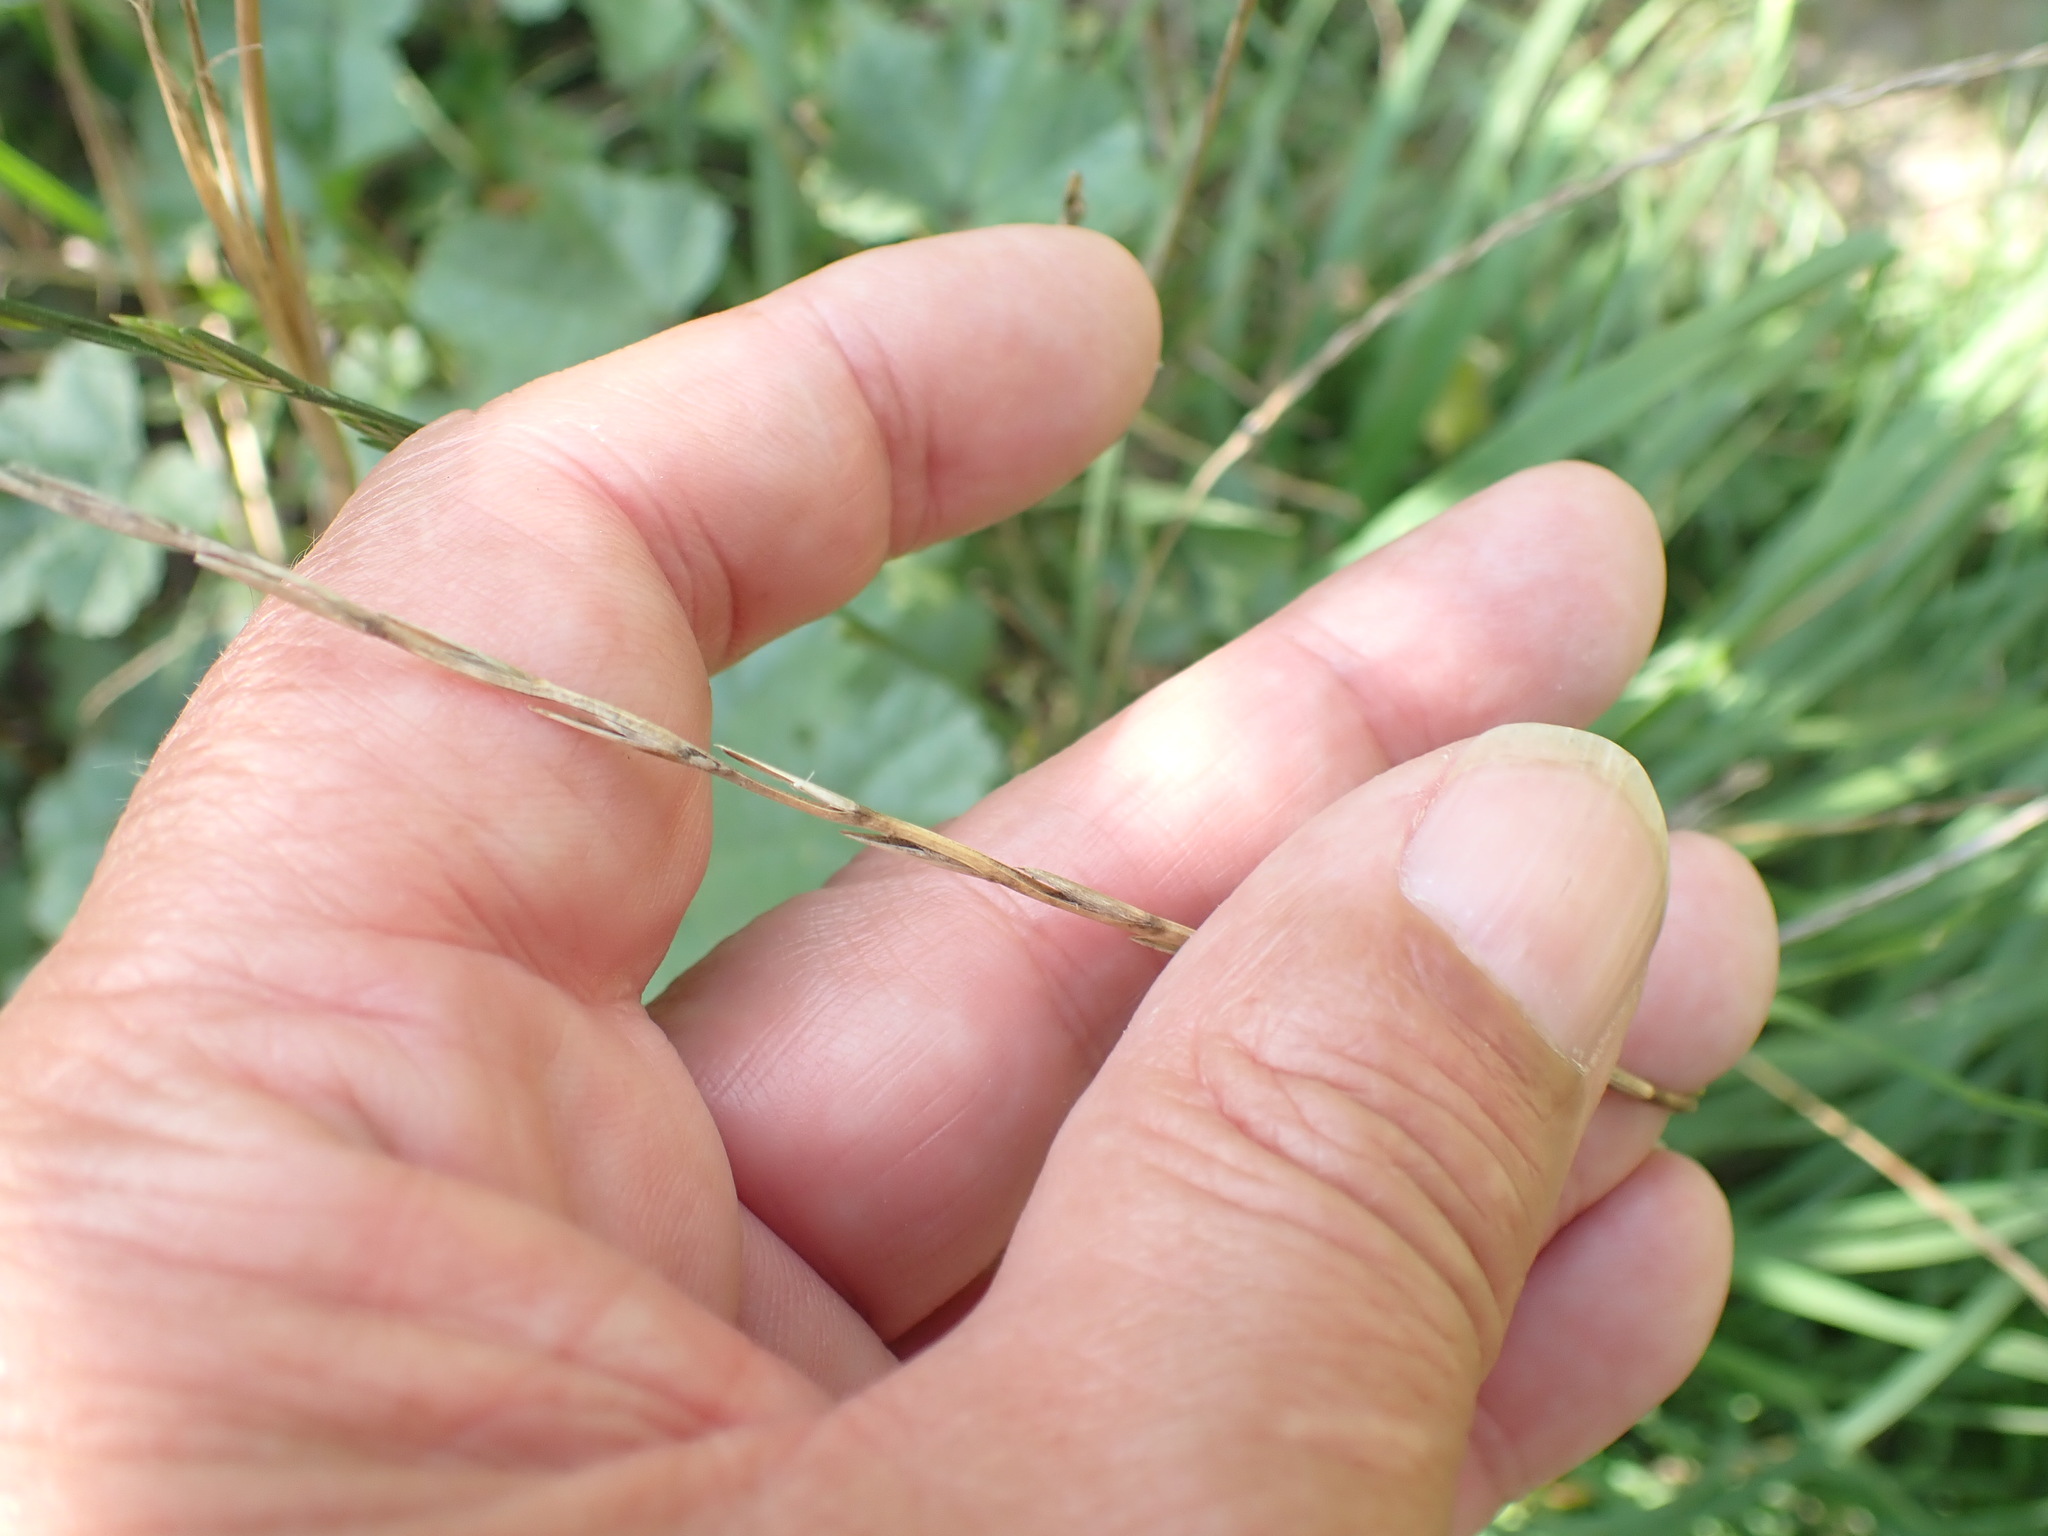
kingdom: Plantae
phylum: Tracheophyta
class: Liliopsida
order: Poales
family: Poaceae
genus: Lolium
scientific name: Lolium perenne
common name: Perennial ryegrass
